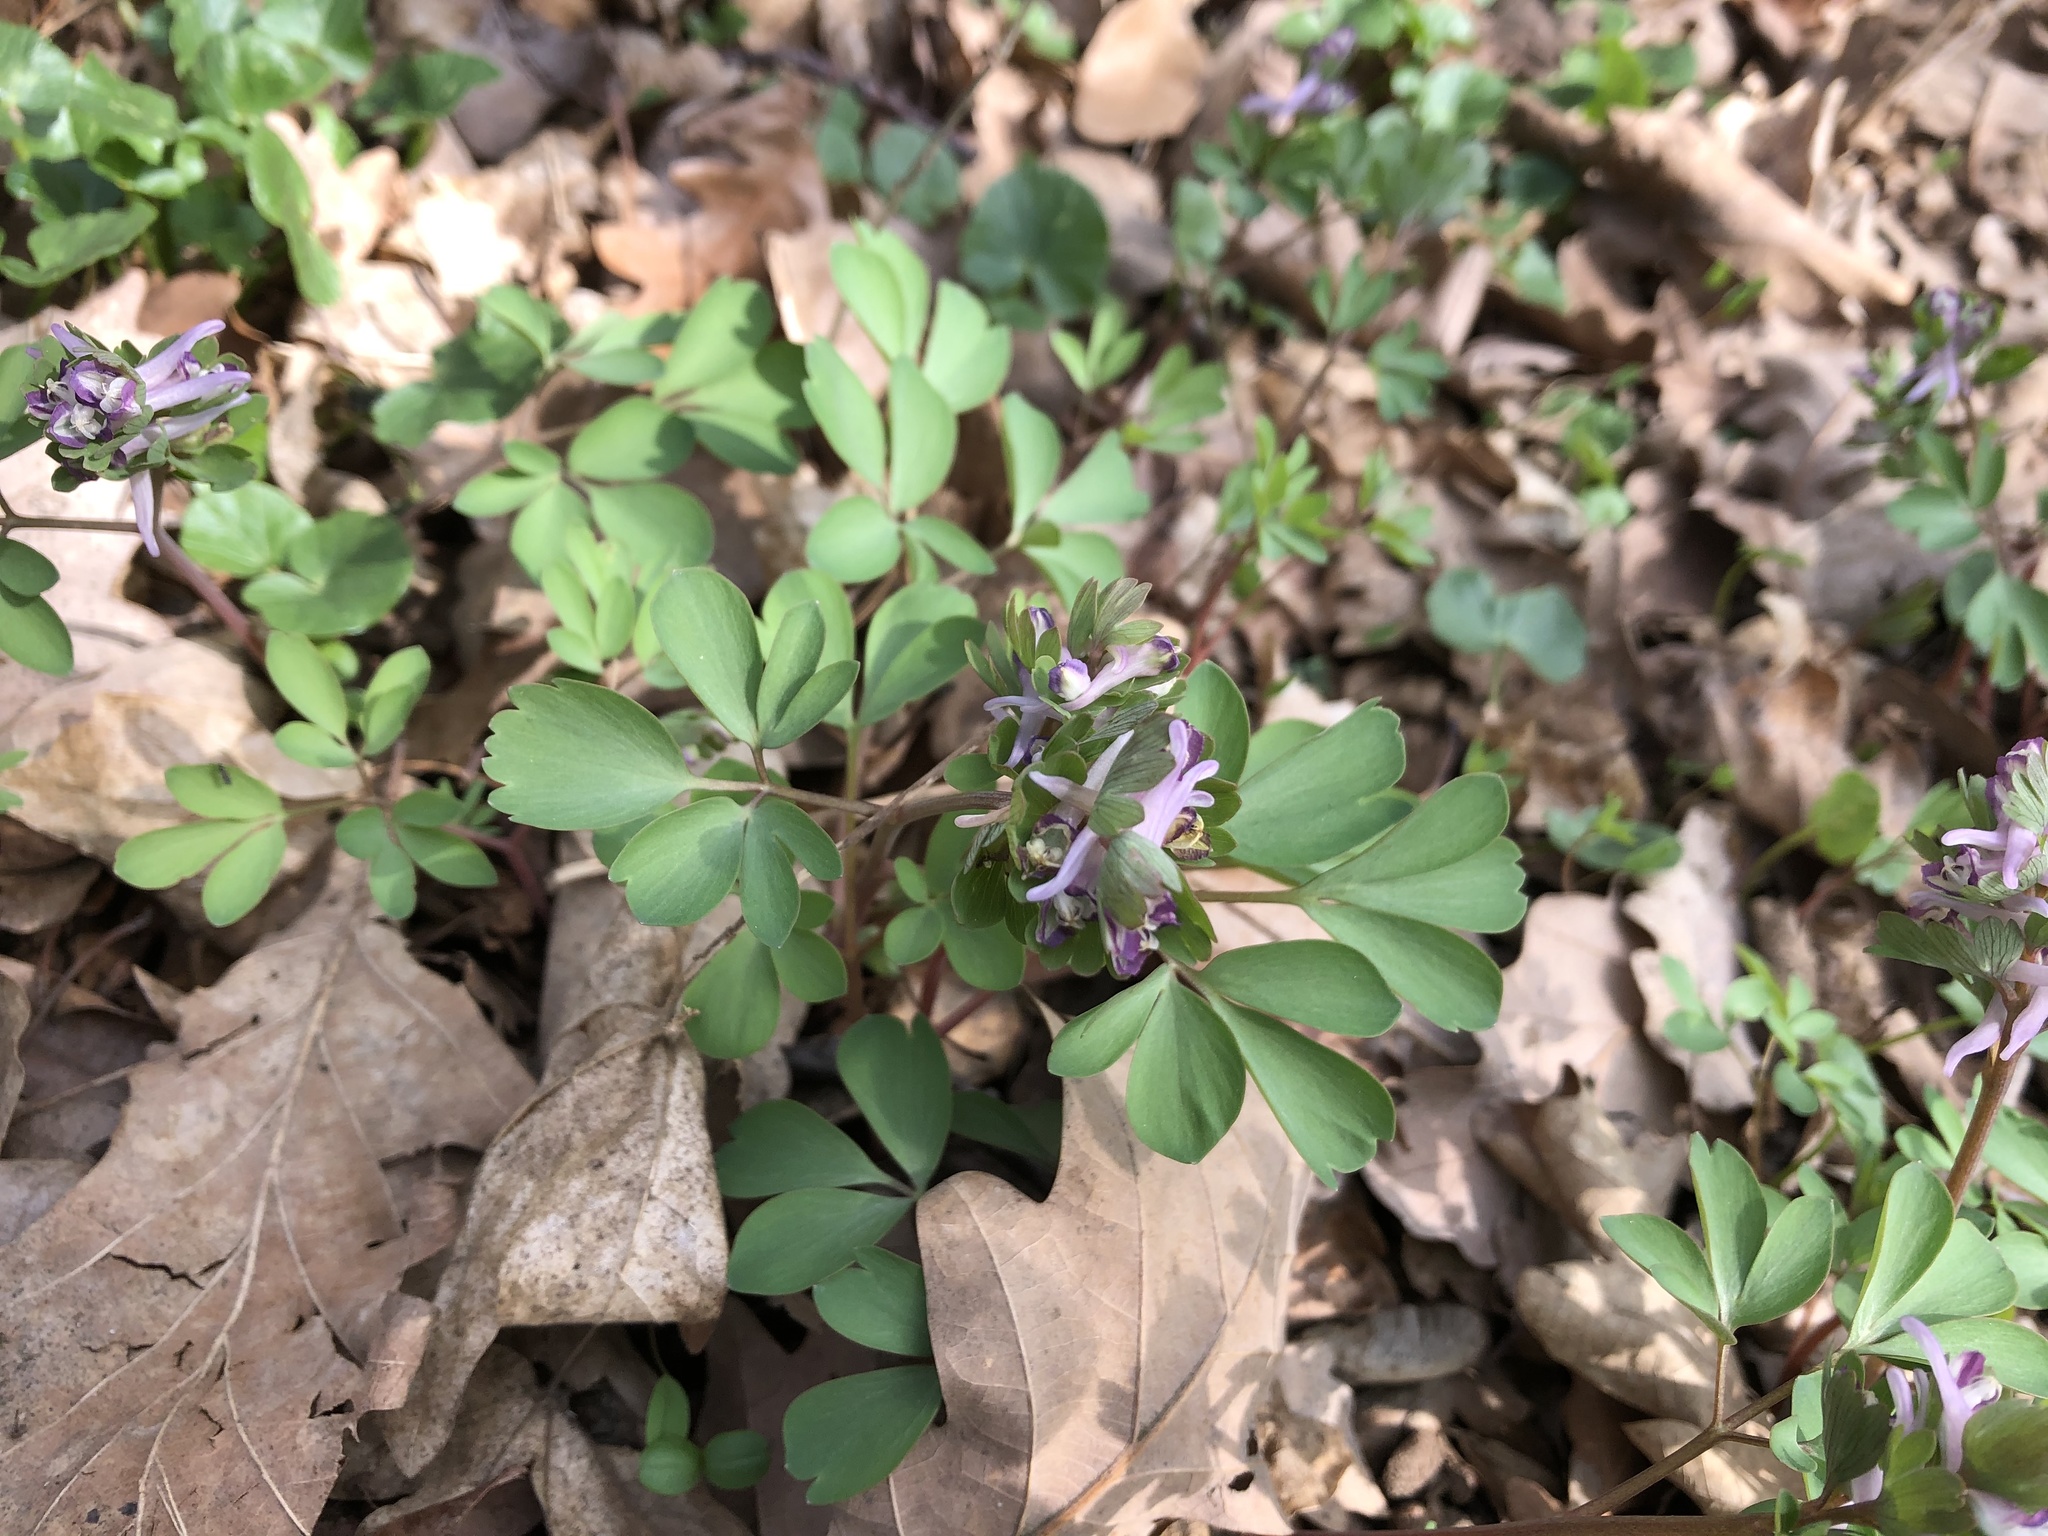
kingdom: Plantae
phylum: Tracheophyta
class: Magnoliopsida
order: Ranunculales
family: Papaveraceae
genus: Corydalis
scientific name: Corydalis pumila
